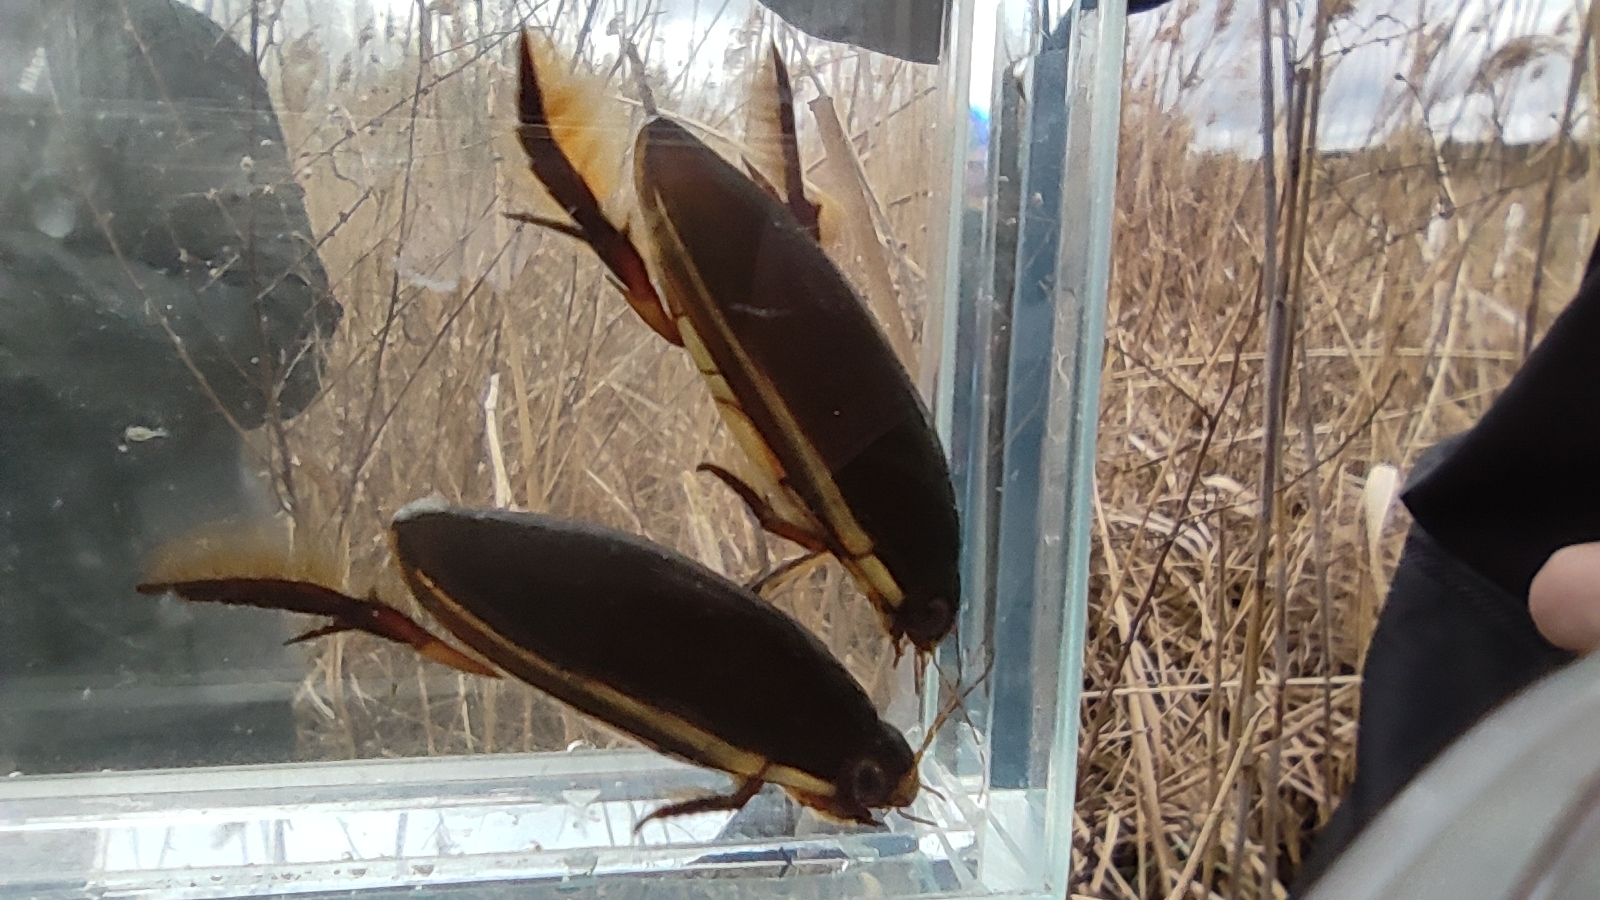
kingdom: Animalia
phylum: Arthropoda
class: Insecta
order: Coleoptera
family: Dytiscidae
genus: Cybister
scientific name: Cybister lateralimarginalis
